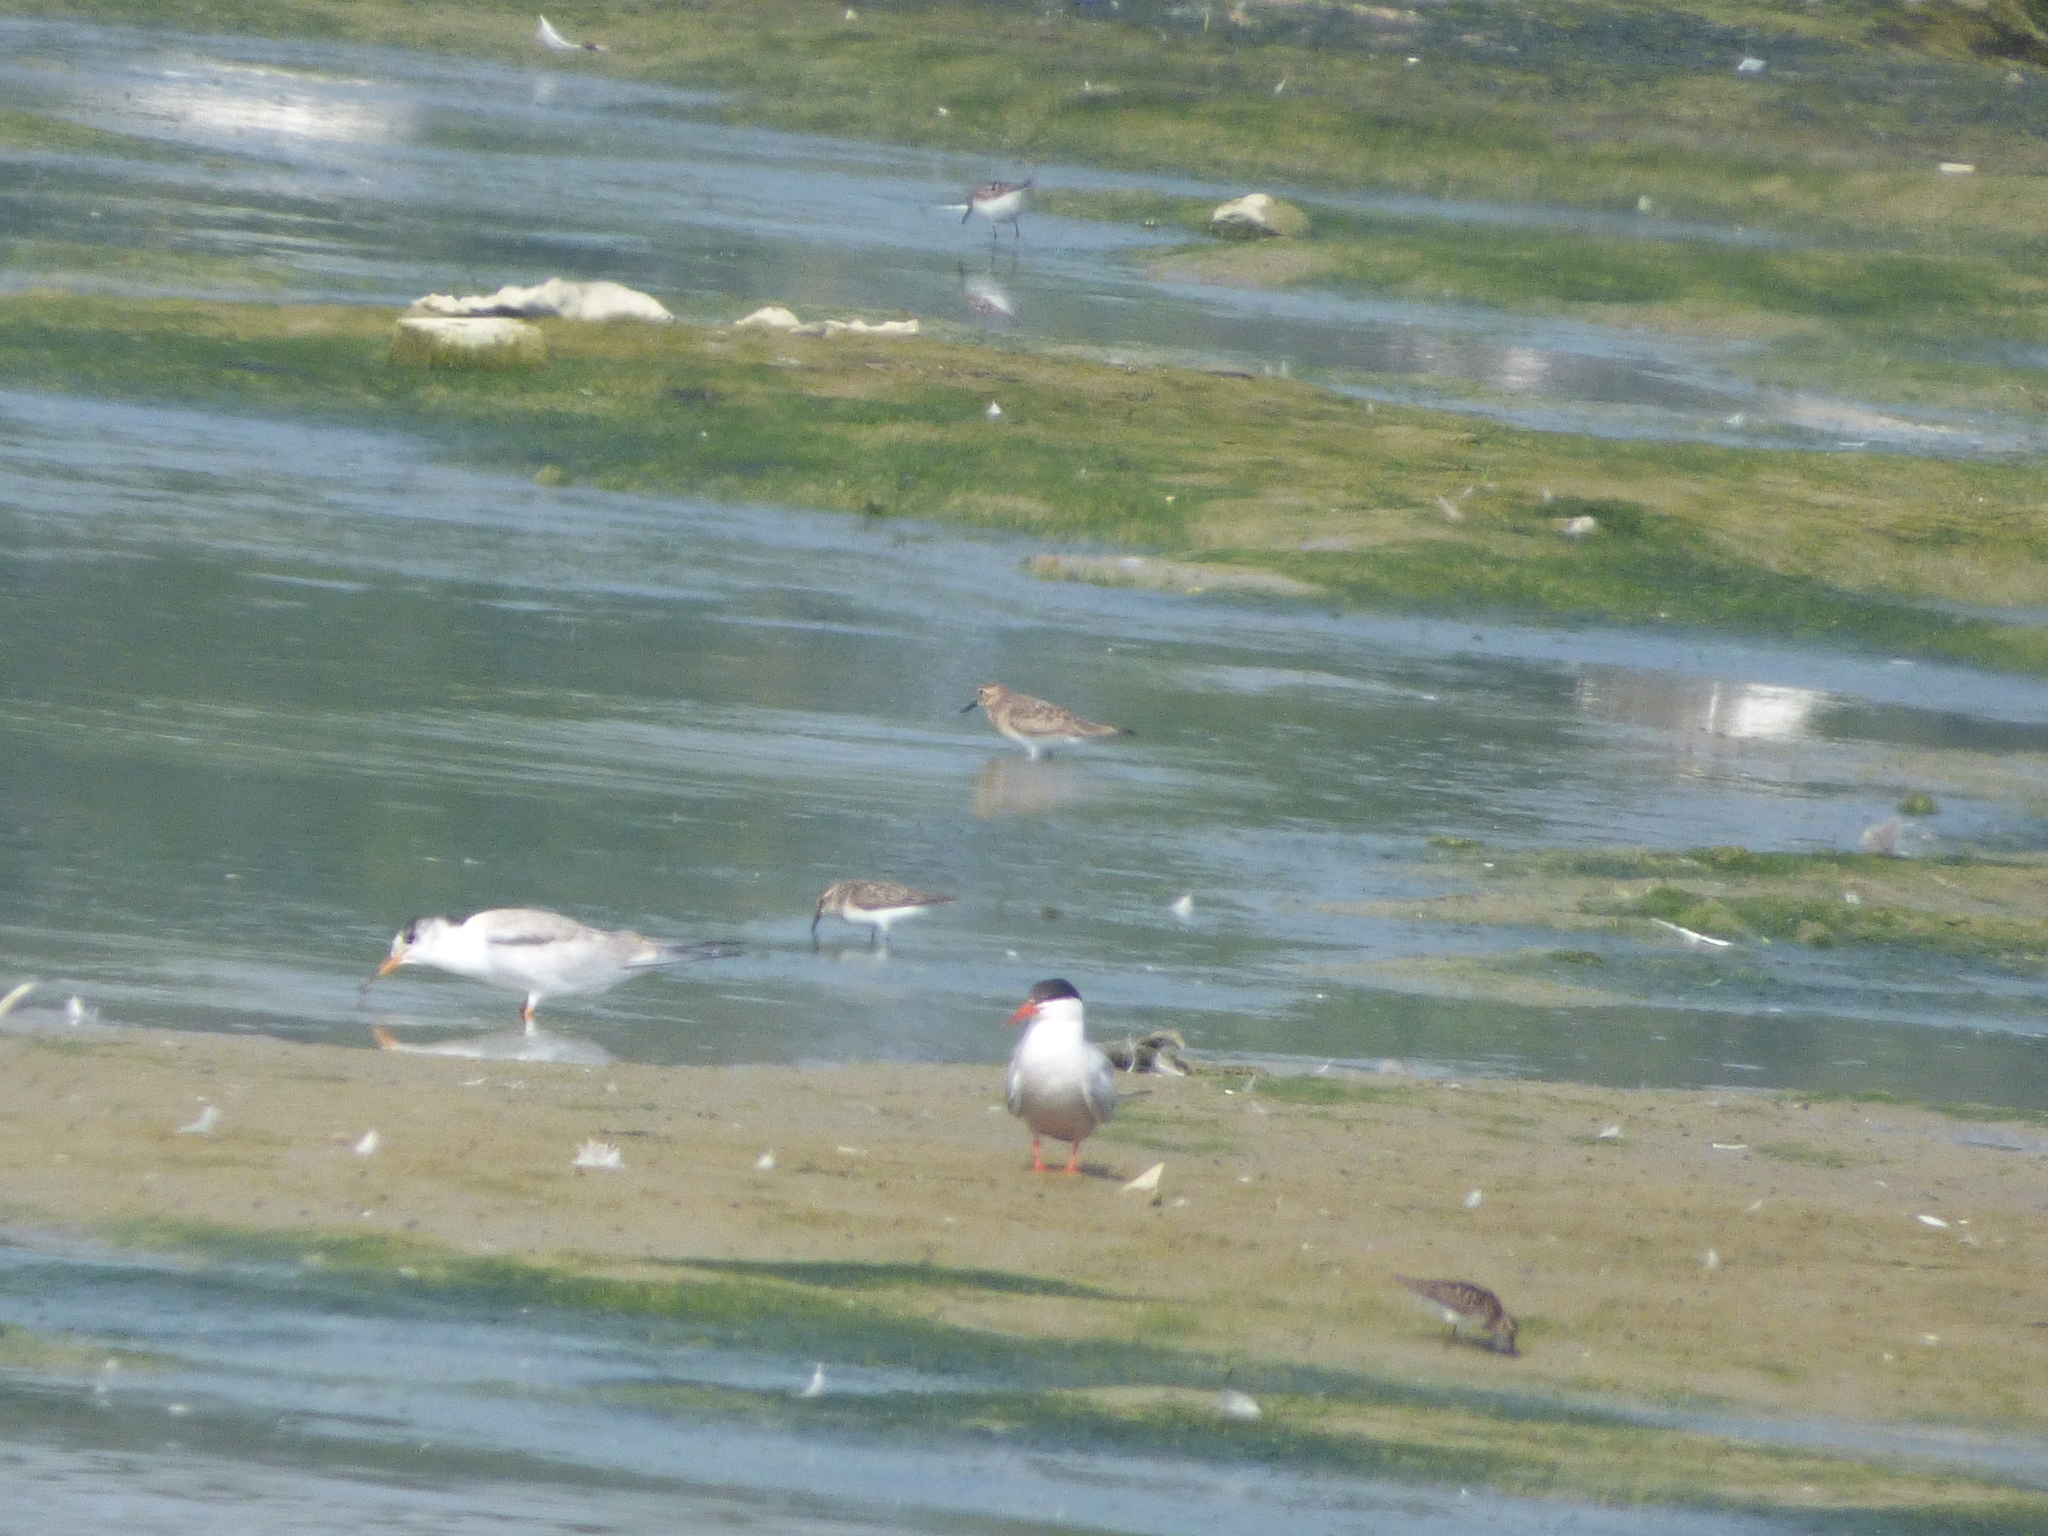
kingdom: Animalia
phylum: Chordata
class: Aves
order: Charadriiformes
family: Scolopacidae
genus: Calidris
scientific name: Calidris bairdii
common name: Baird's sandpiper
